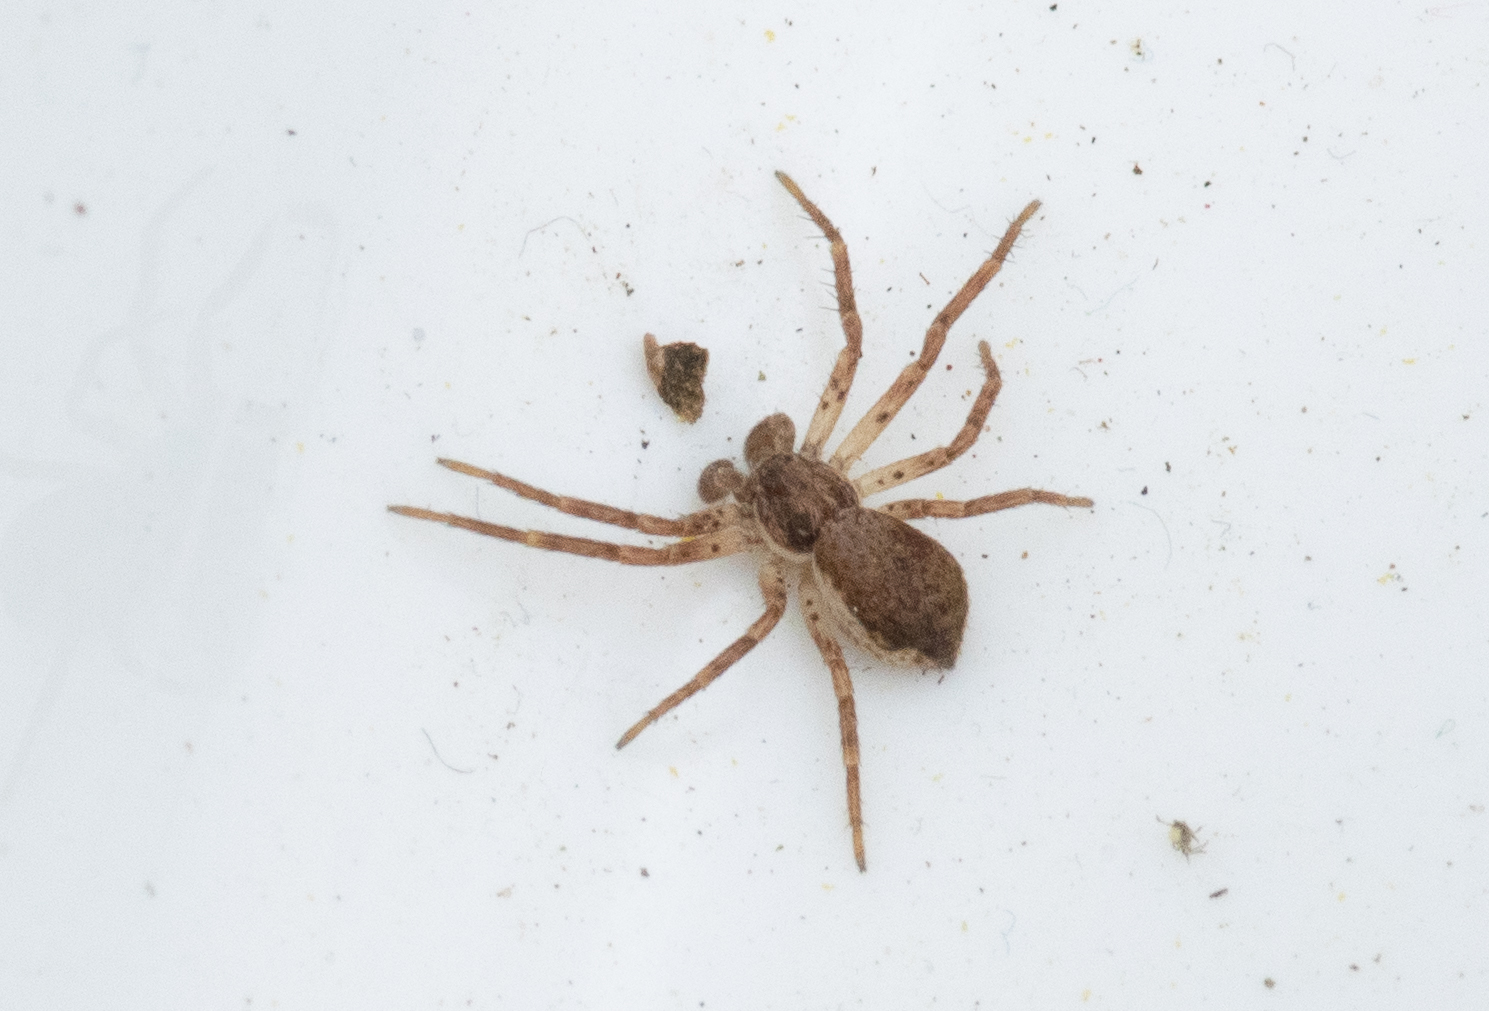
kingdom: Animalia
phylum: Arthropoda
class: Arachnida
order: Araneae
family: Philodromidae
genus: Philodromus
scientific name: Philodromus dispar
